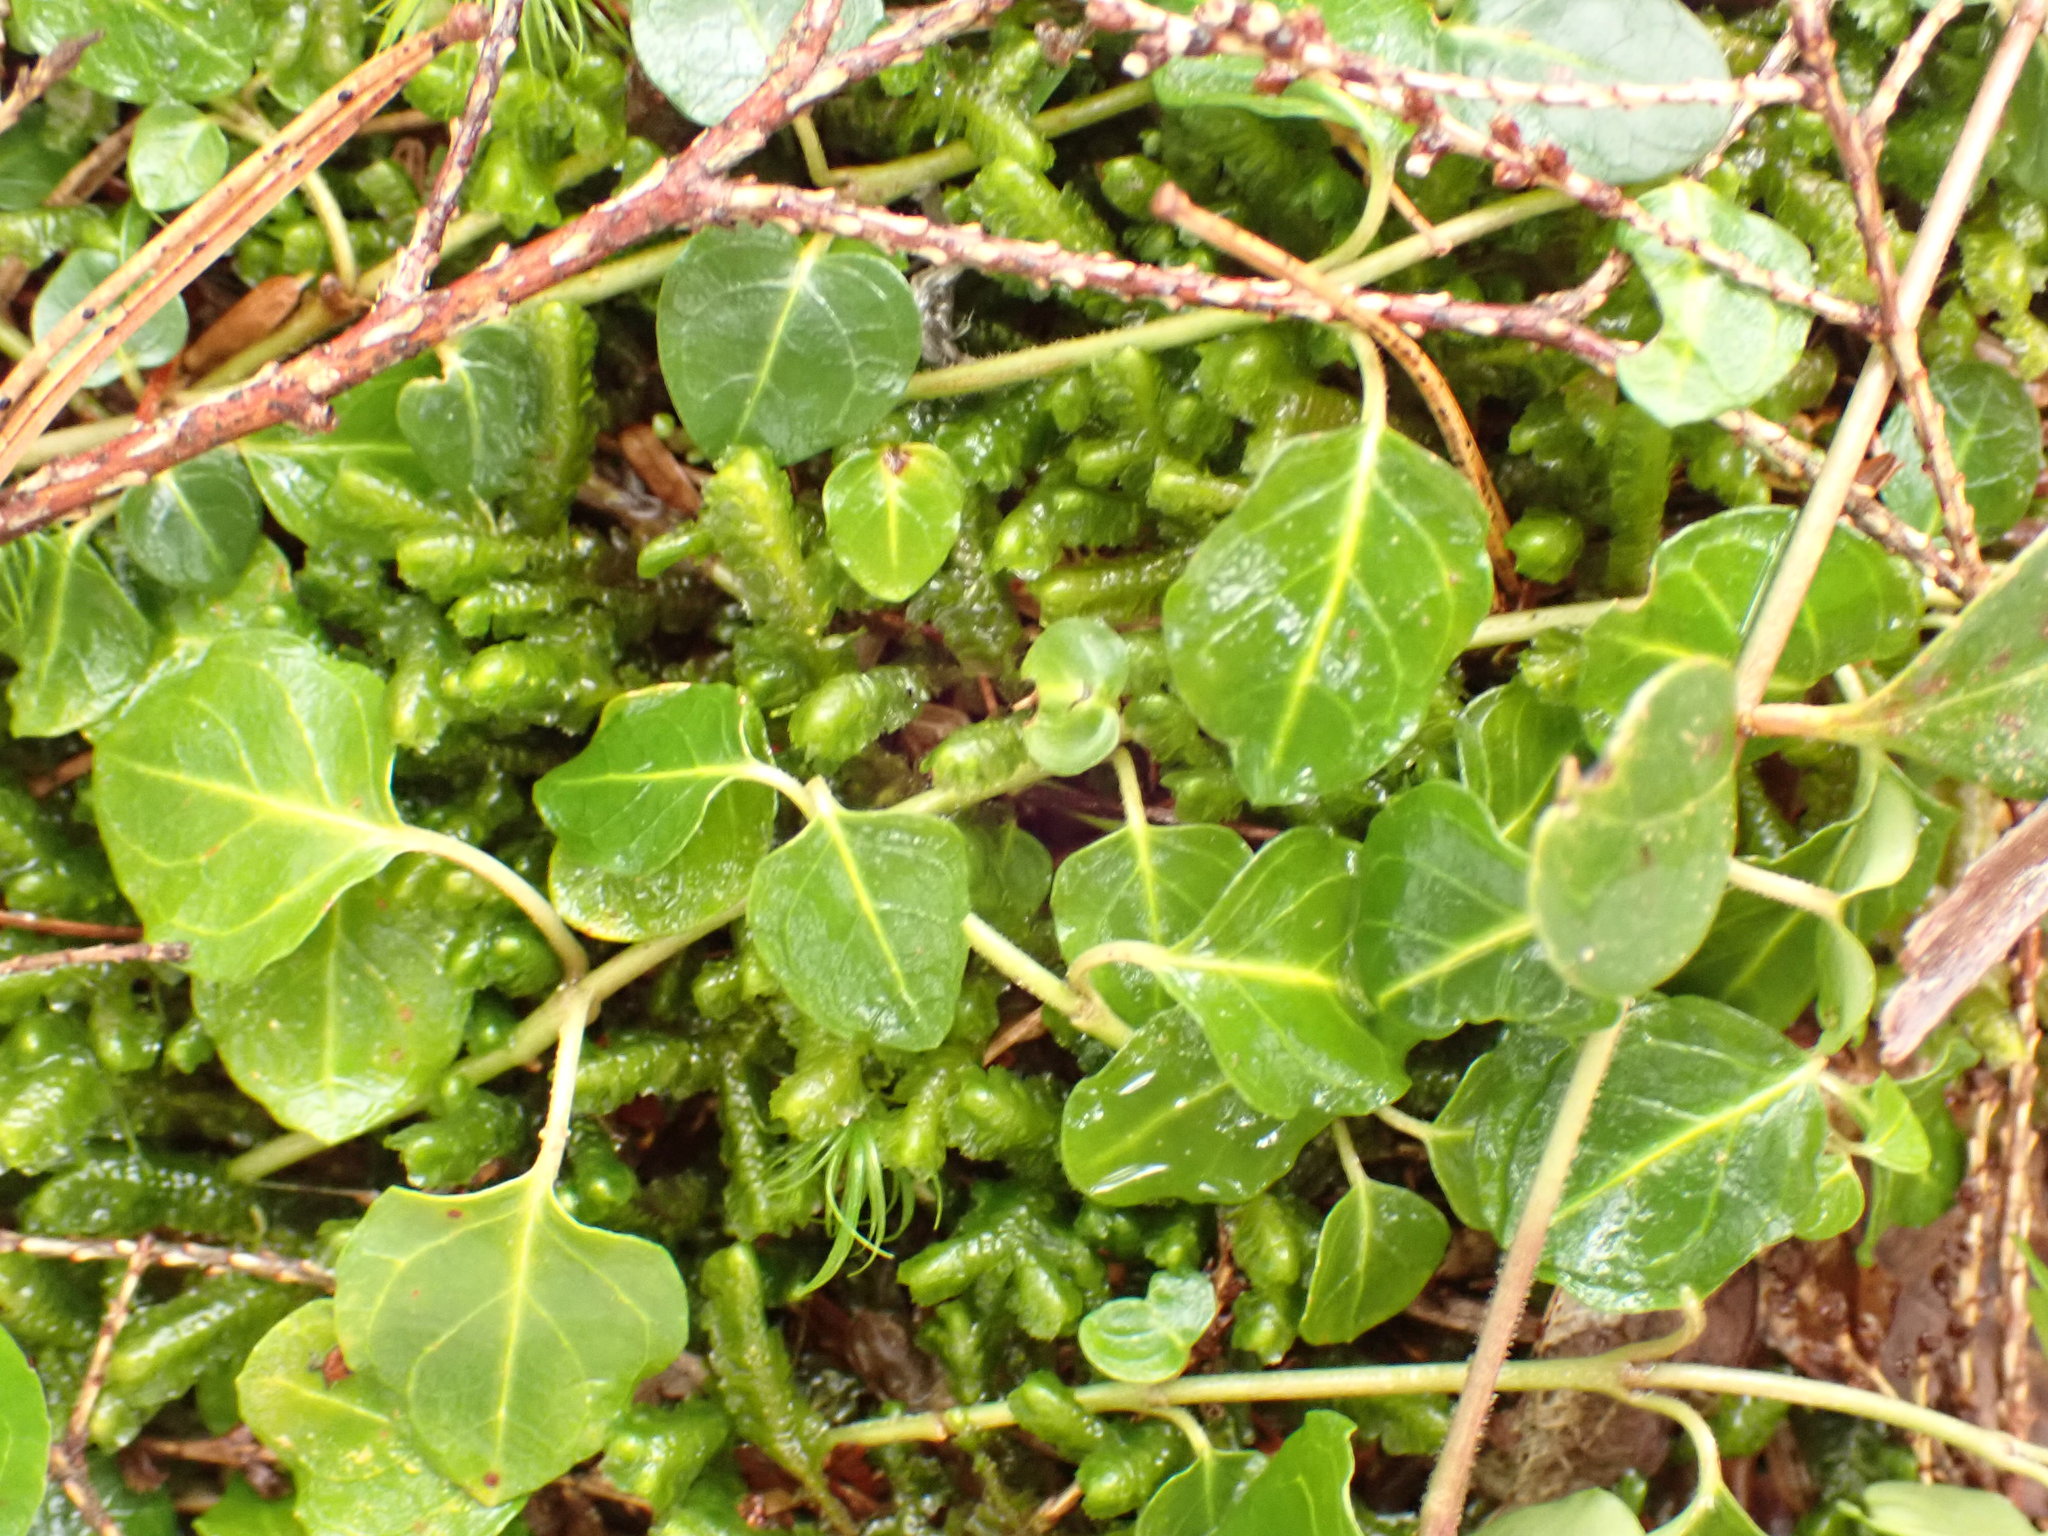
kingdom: Plantae
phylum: Tracheophyta
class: Magnoliopsida
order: Gentianales
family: Rubiaceae
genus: Mitchella
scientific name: Mitchella repens
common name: Partridge-berry
